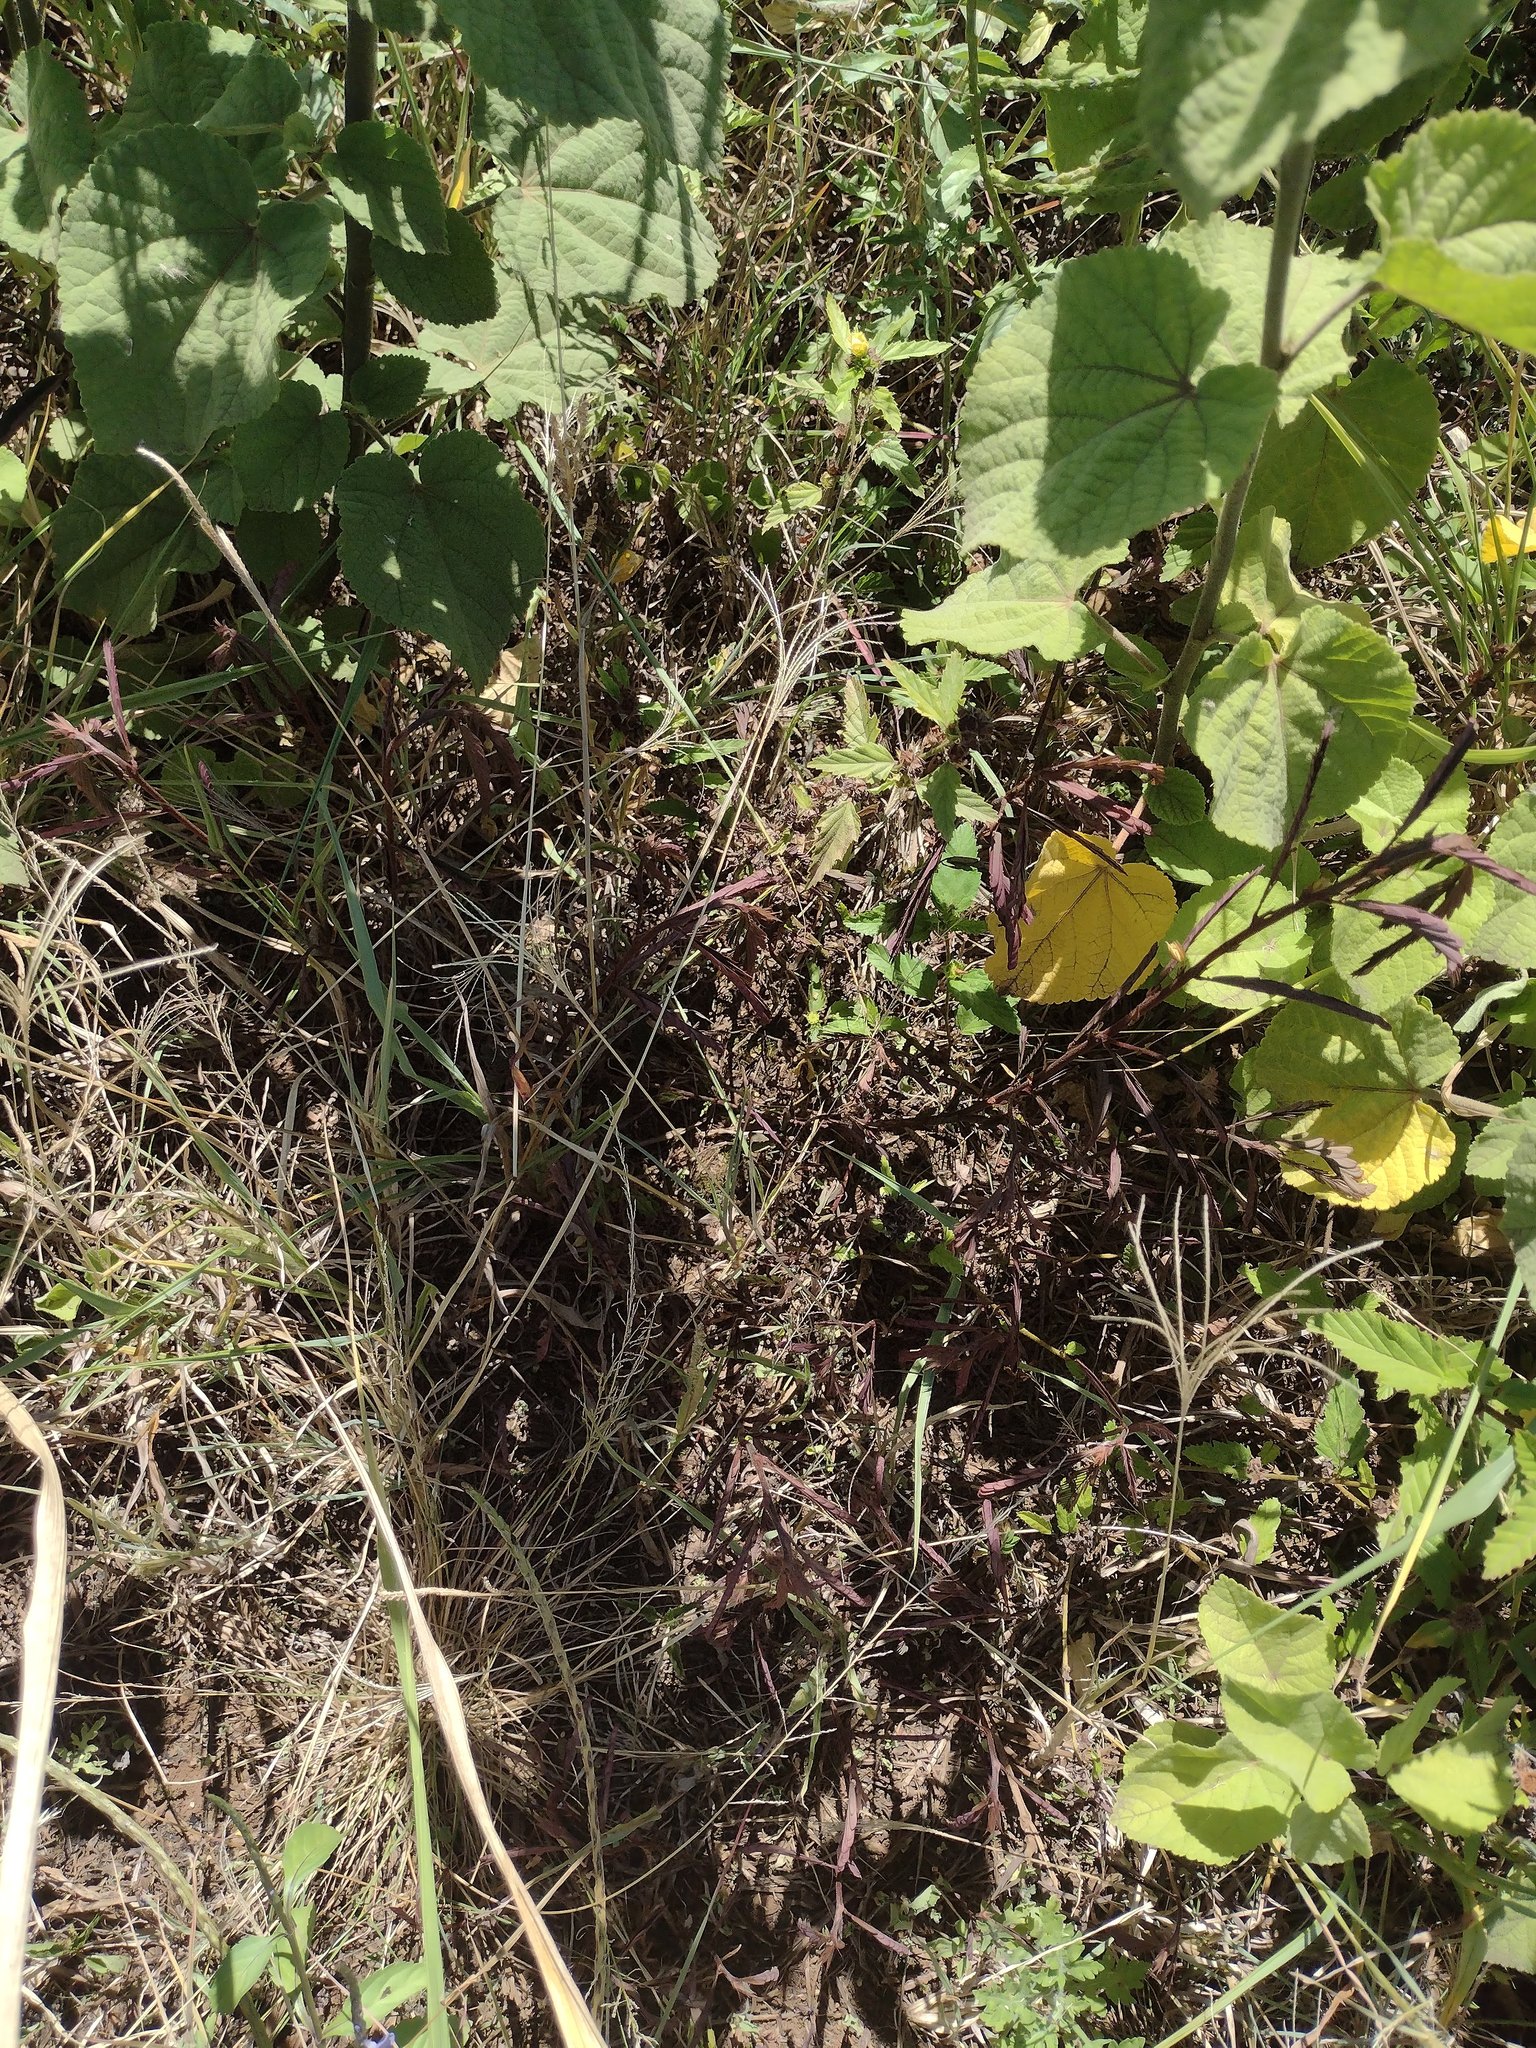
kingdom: Plantae
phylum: Tracheophyta
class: Magnoliopsida
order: Fabales
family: Fabaceae
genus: Mimosa
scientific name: Mimosa pudica
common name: Sensitive plant
